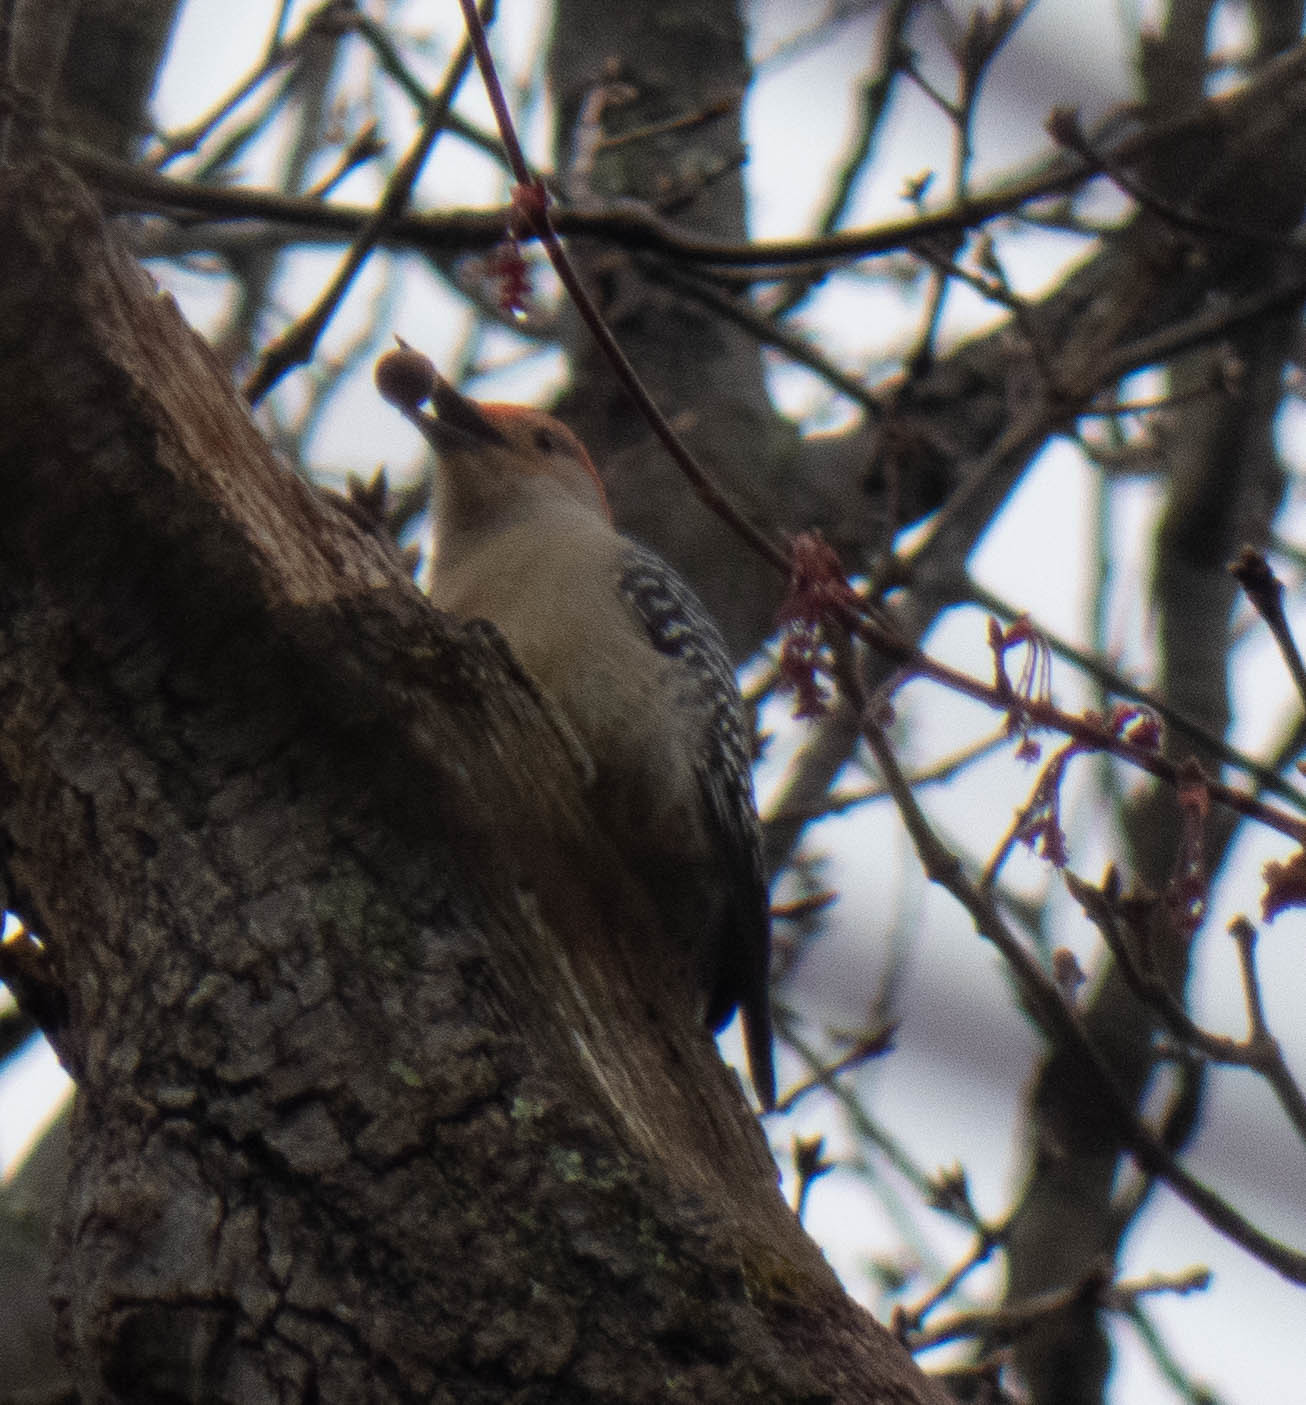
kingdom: Animalia
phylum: Chordata
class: Aves
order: Piciformes
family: Picidae
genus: Melanerpes
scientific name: Melanerpes carolinus
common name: Red-bellied woodpecker
